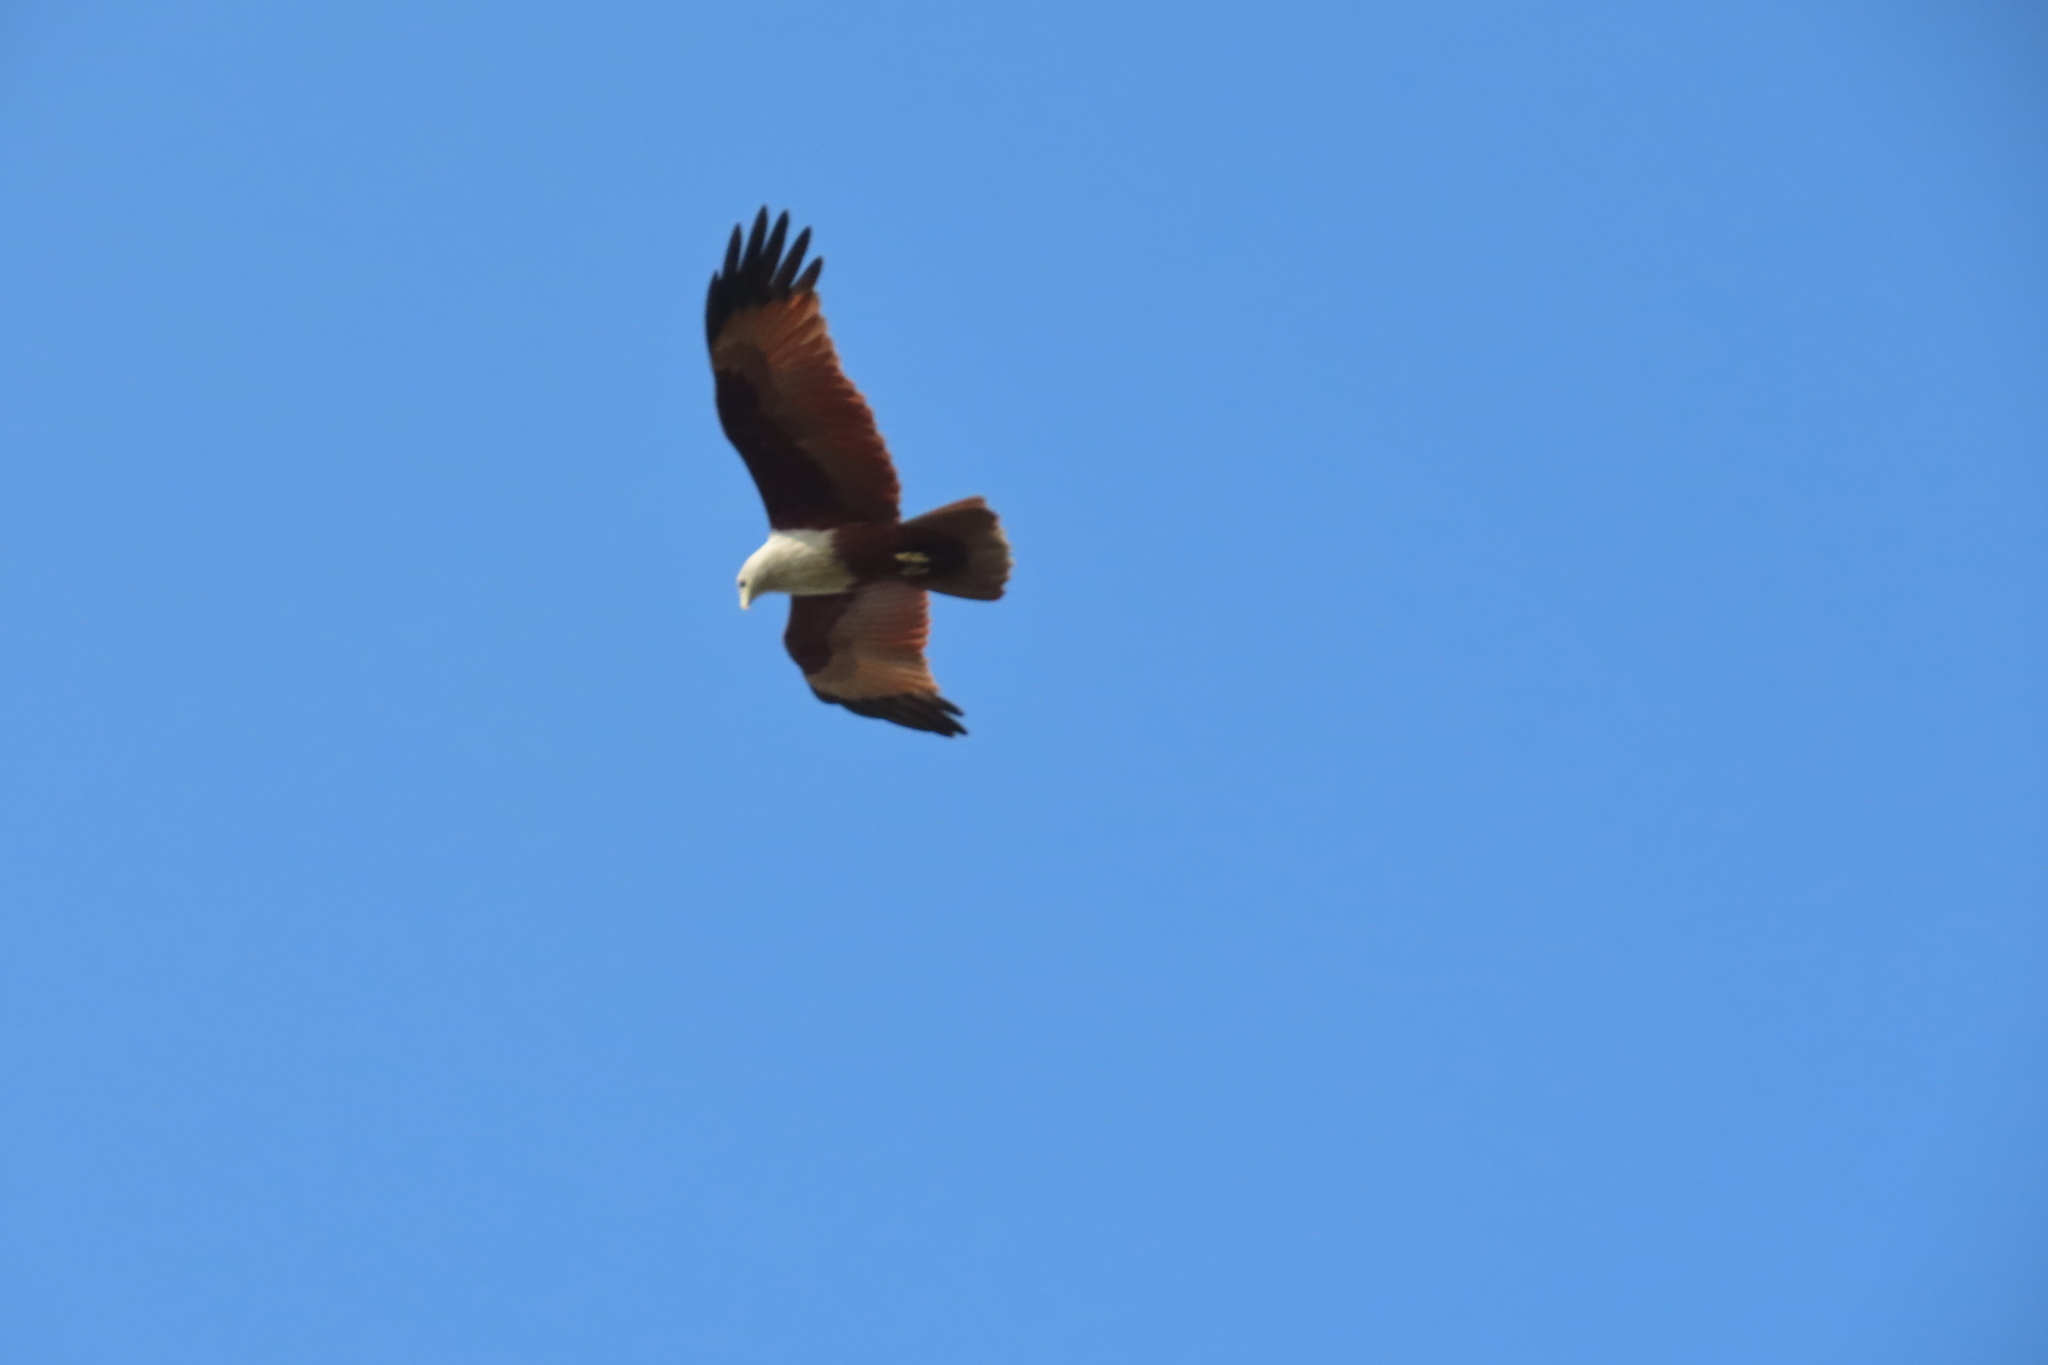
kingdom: Animalia
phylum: Chordata
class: Aves
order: Accipitriformes
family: Accipitridae
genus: Haliastur
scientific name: Haliastur indus
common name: Brahminy kite
